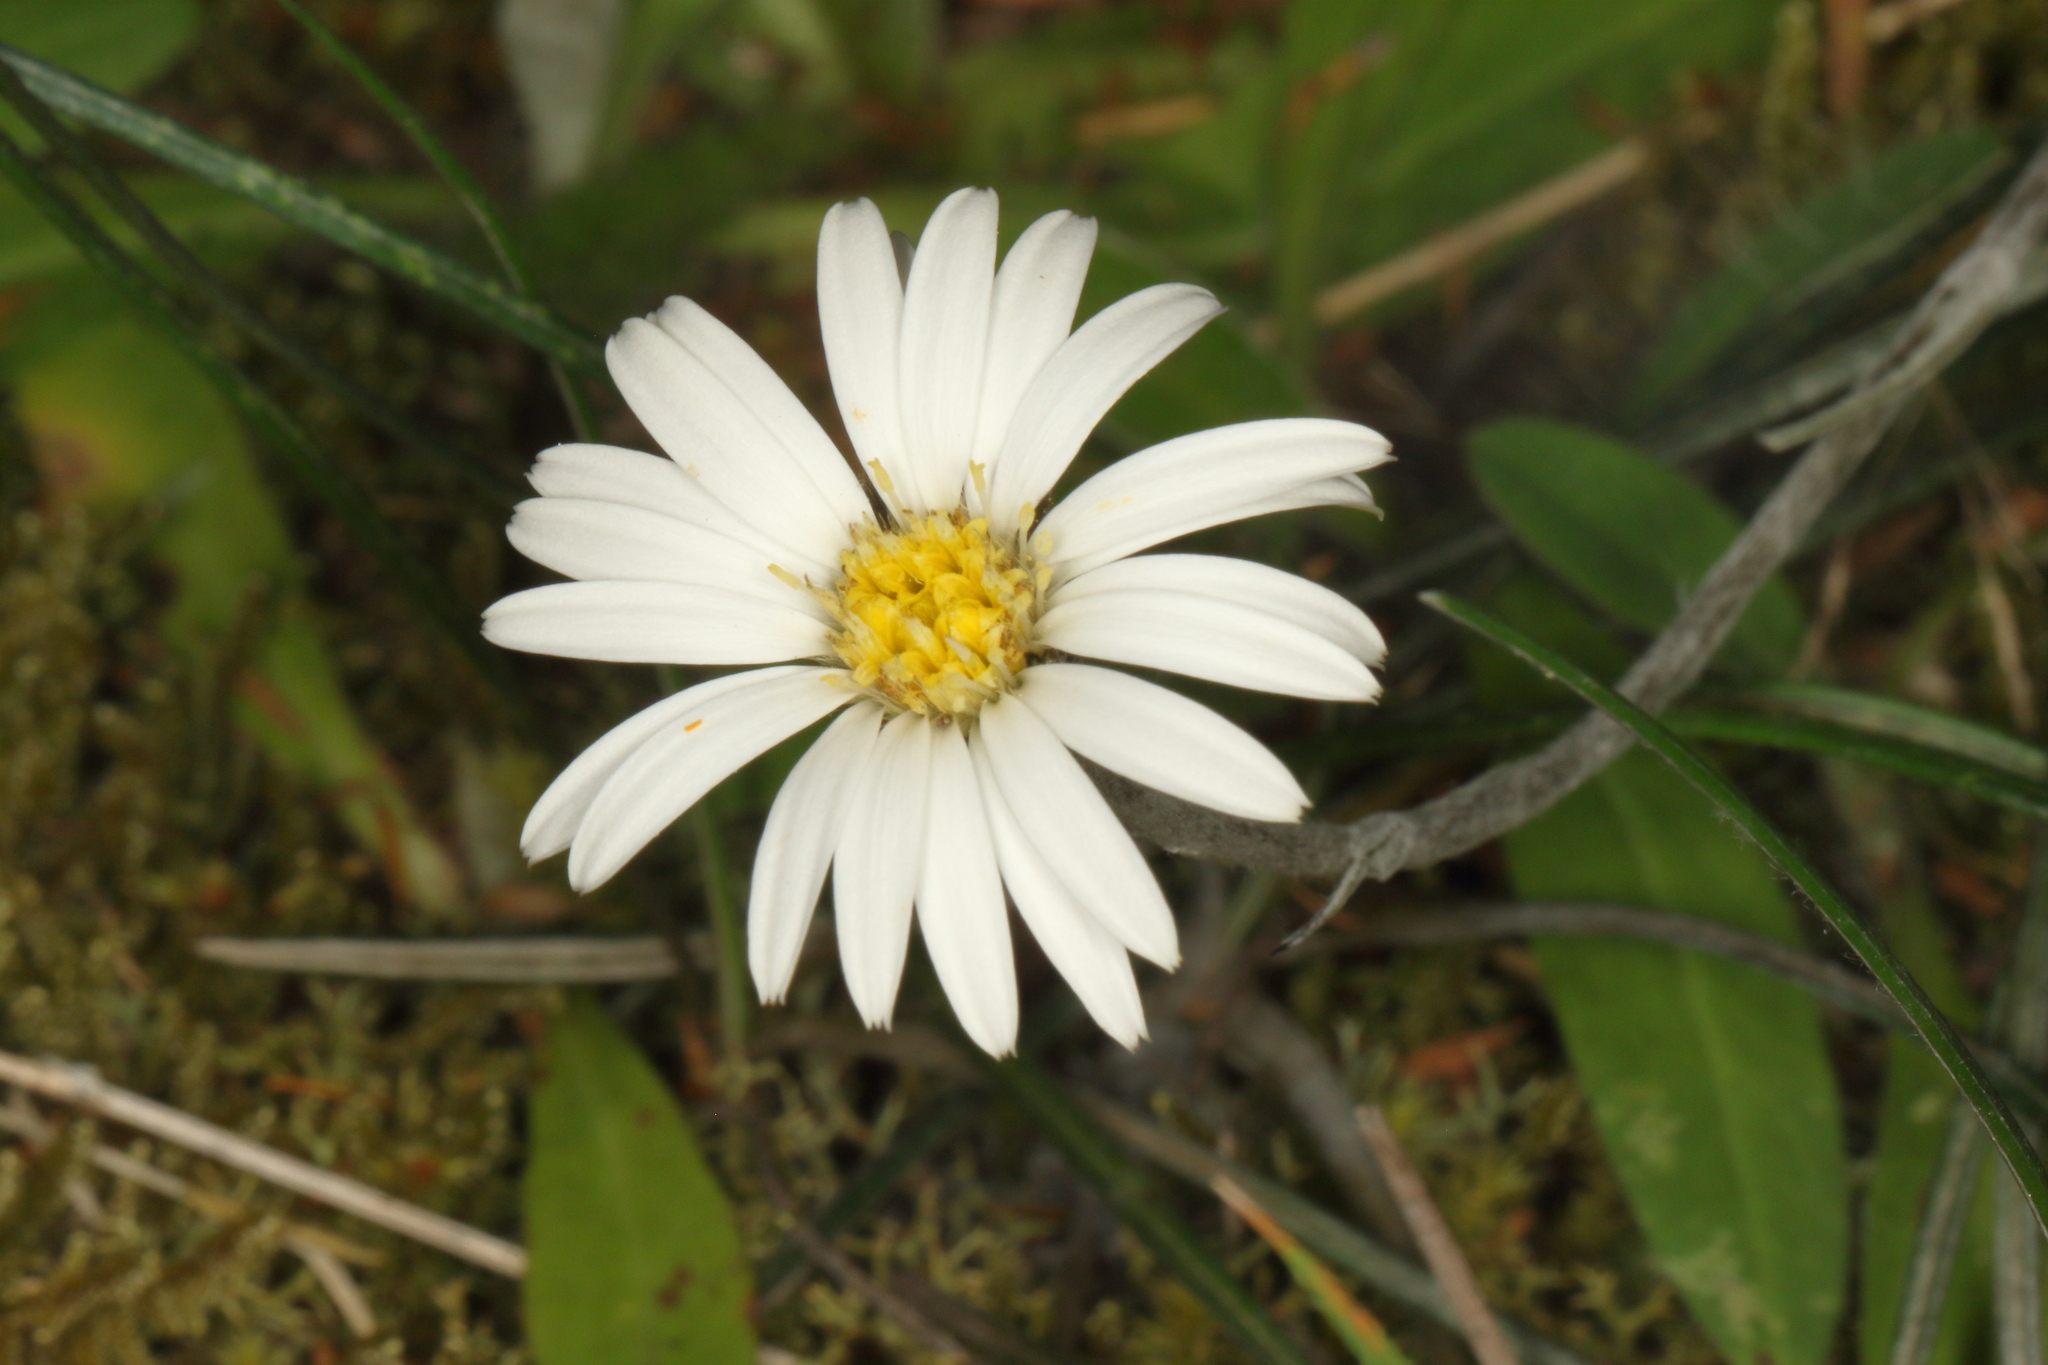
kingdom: Plantae
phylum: Tracheophyta
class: Magnoliopsida
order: Asterales
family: Asteraceae
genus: Celmisia
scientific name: Celmisia gracilenta
